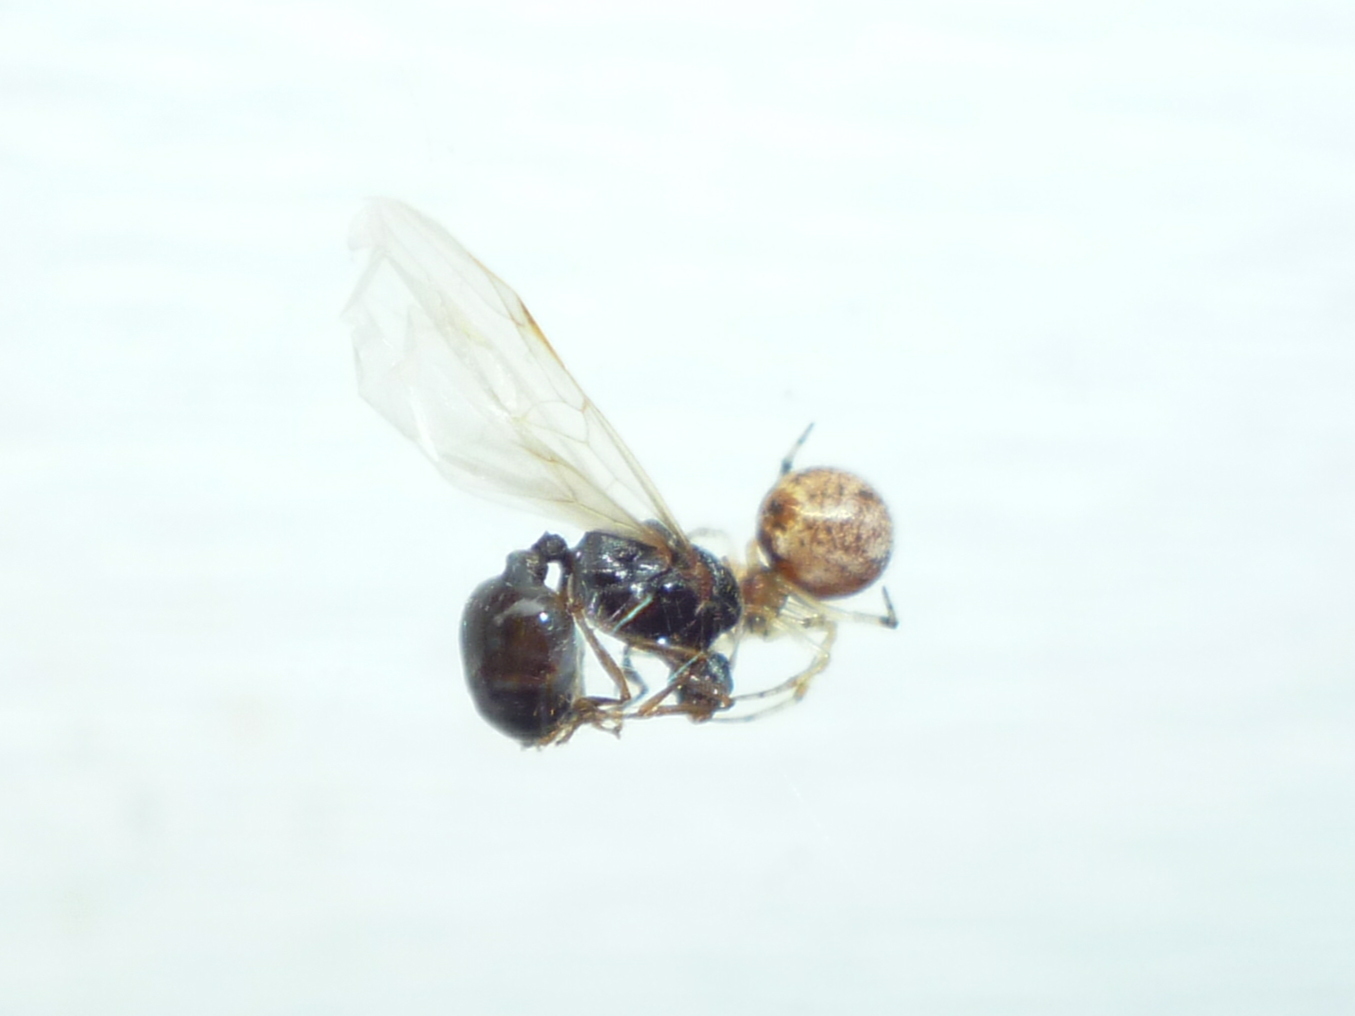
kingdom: Animalia
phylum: Arthropoda
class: Arachnida
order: Araneae
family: Theridiidae
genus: Parasteatoda
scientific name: Parasteatoda tepidariorum
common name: Common house spider
